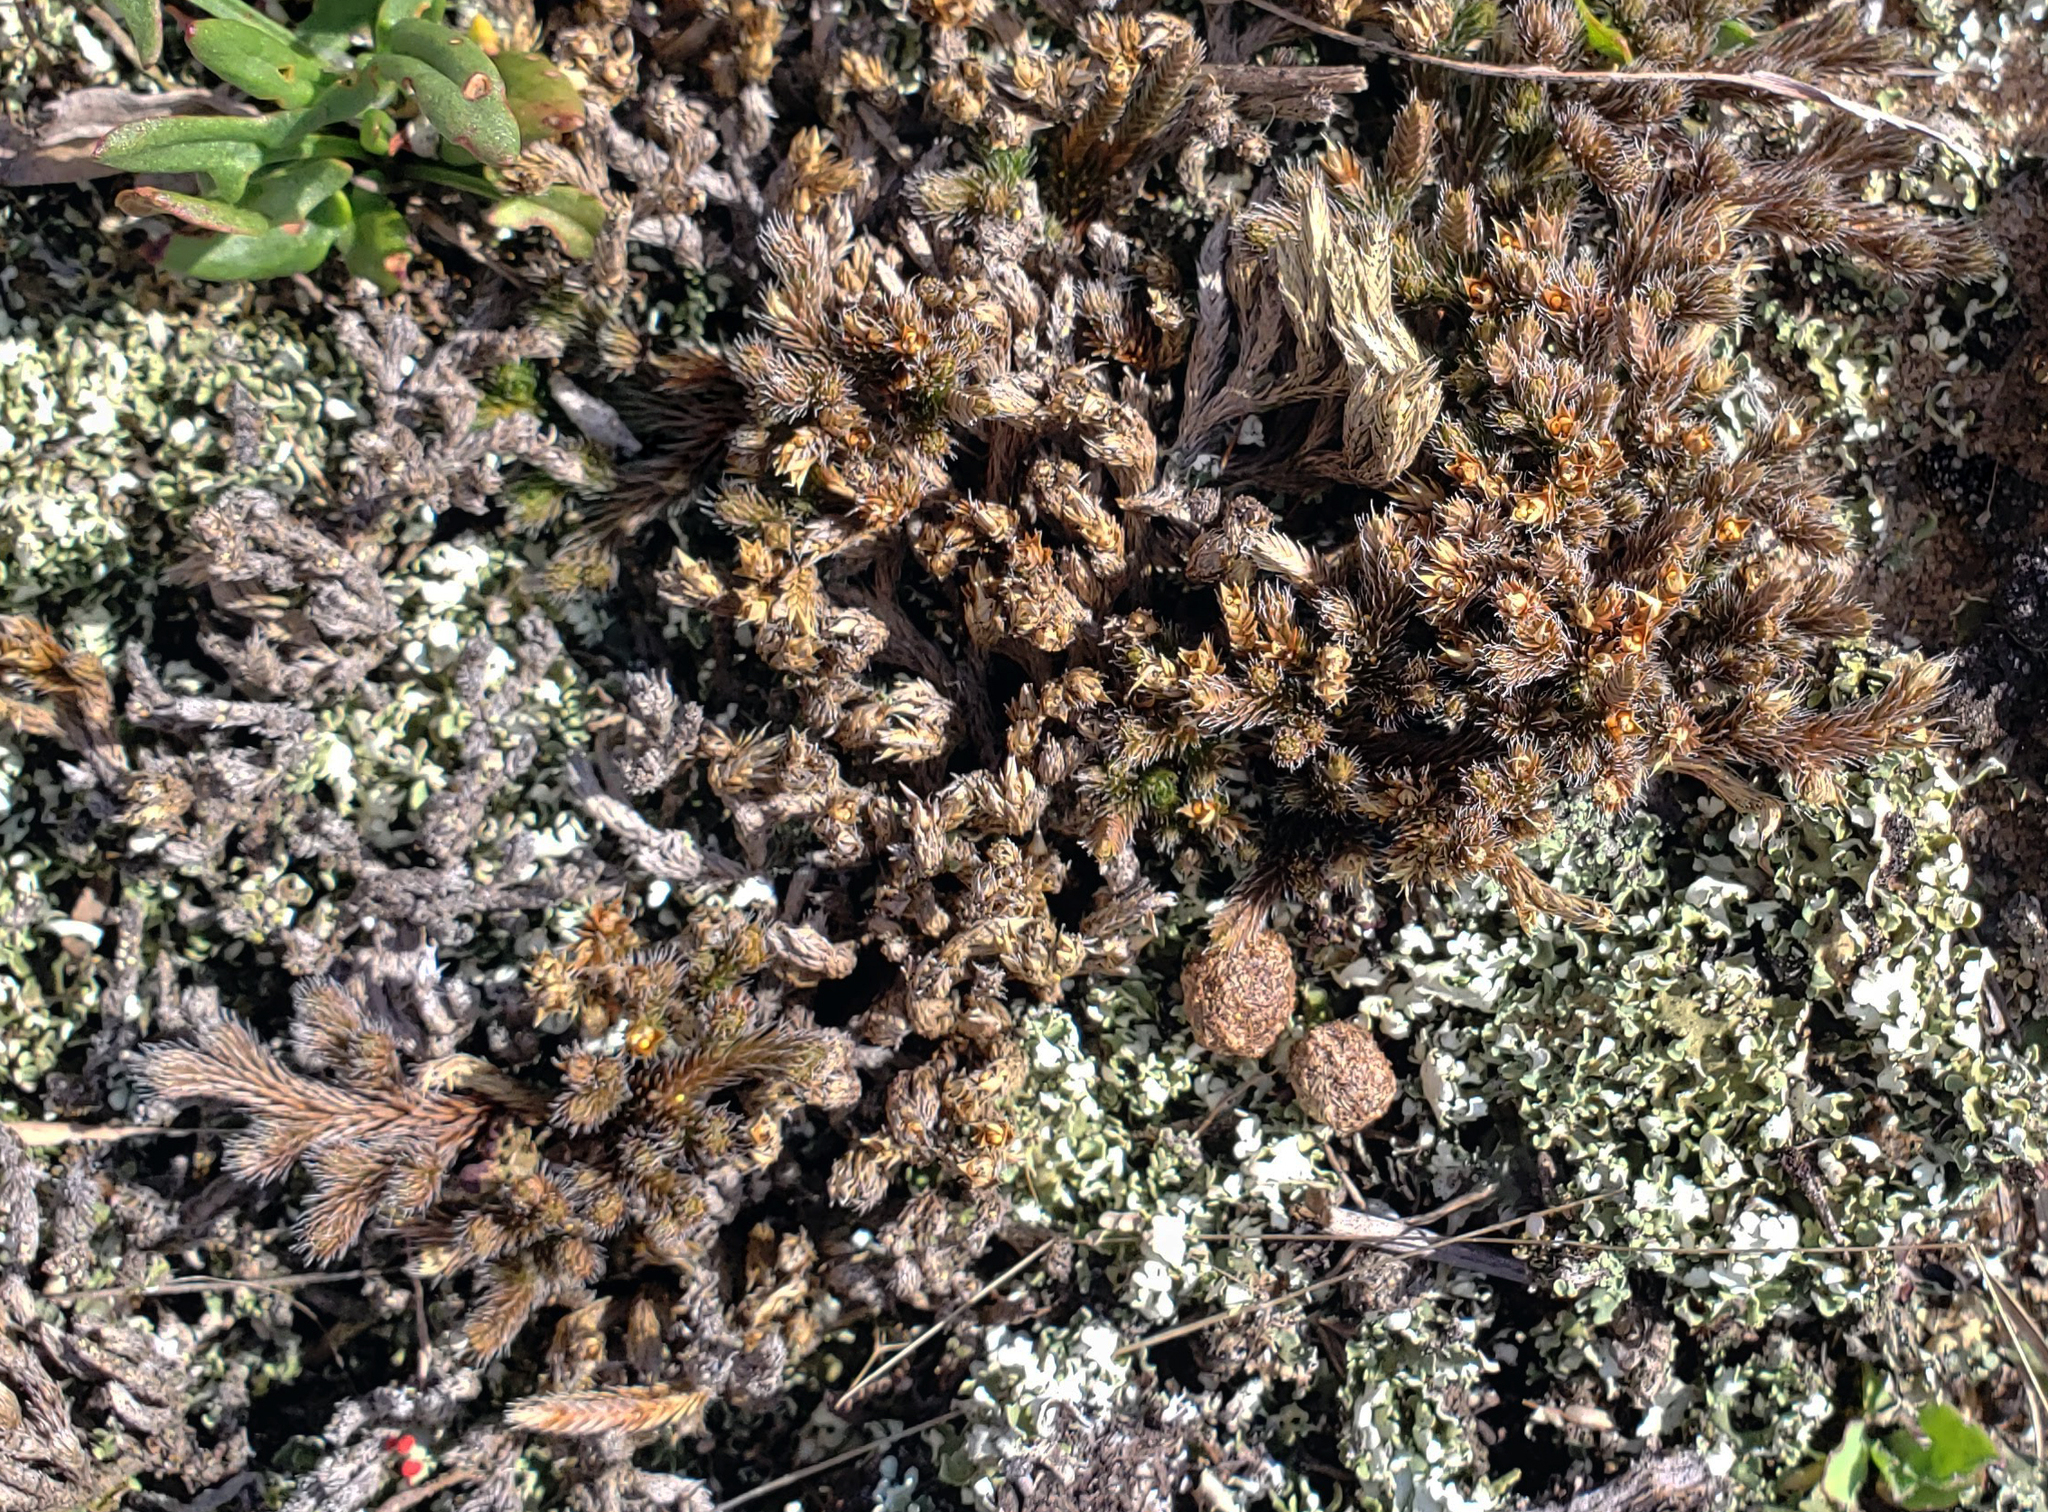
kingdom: Plantae
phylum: Tracheophyta
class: Lycopodiopsida
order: Selaginellales
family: Selaginellaceae
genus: Selaginella
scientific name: Selaginella rupestris
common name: Dwarf spikemoss
